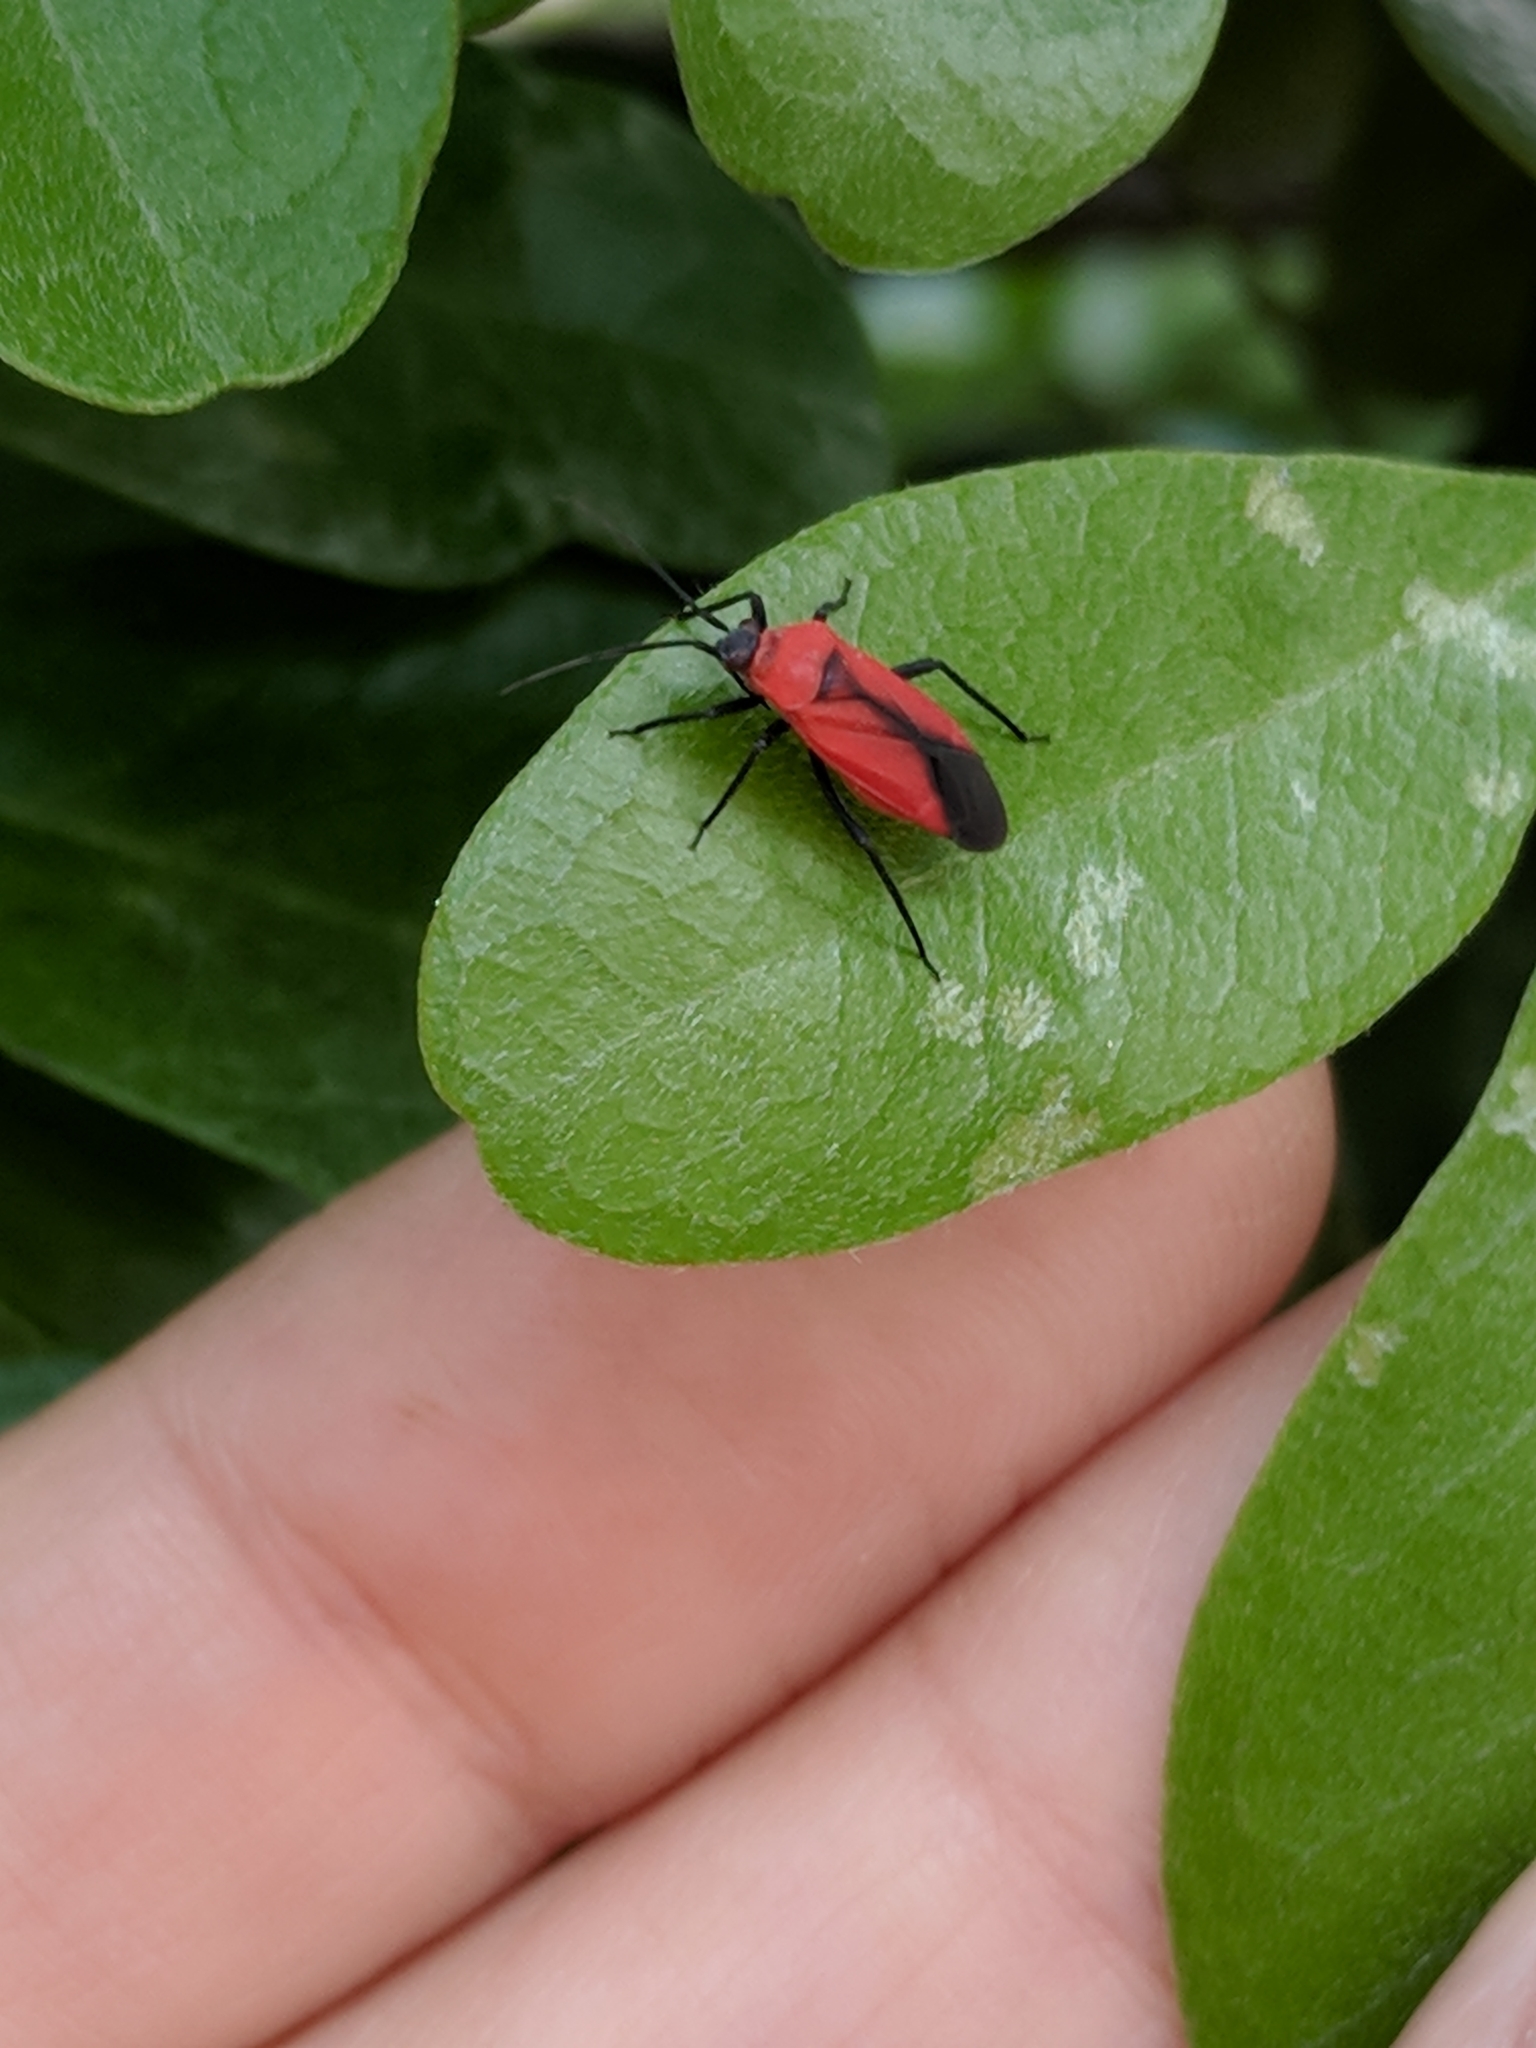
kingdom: Animalia
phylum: Arthropoda
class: Insecta
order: Hemiptera
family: Miridae
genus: Lopidea
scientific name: Lopidea major
